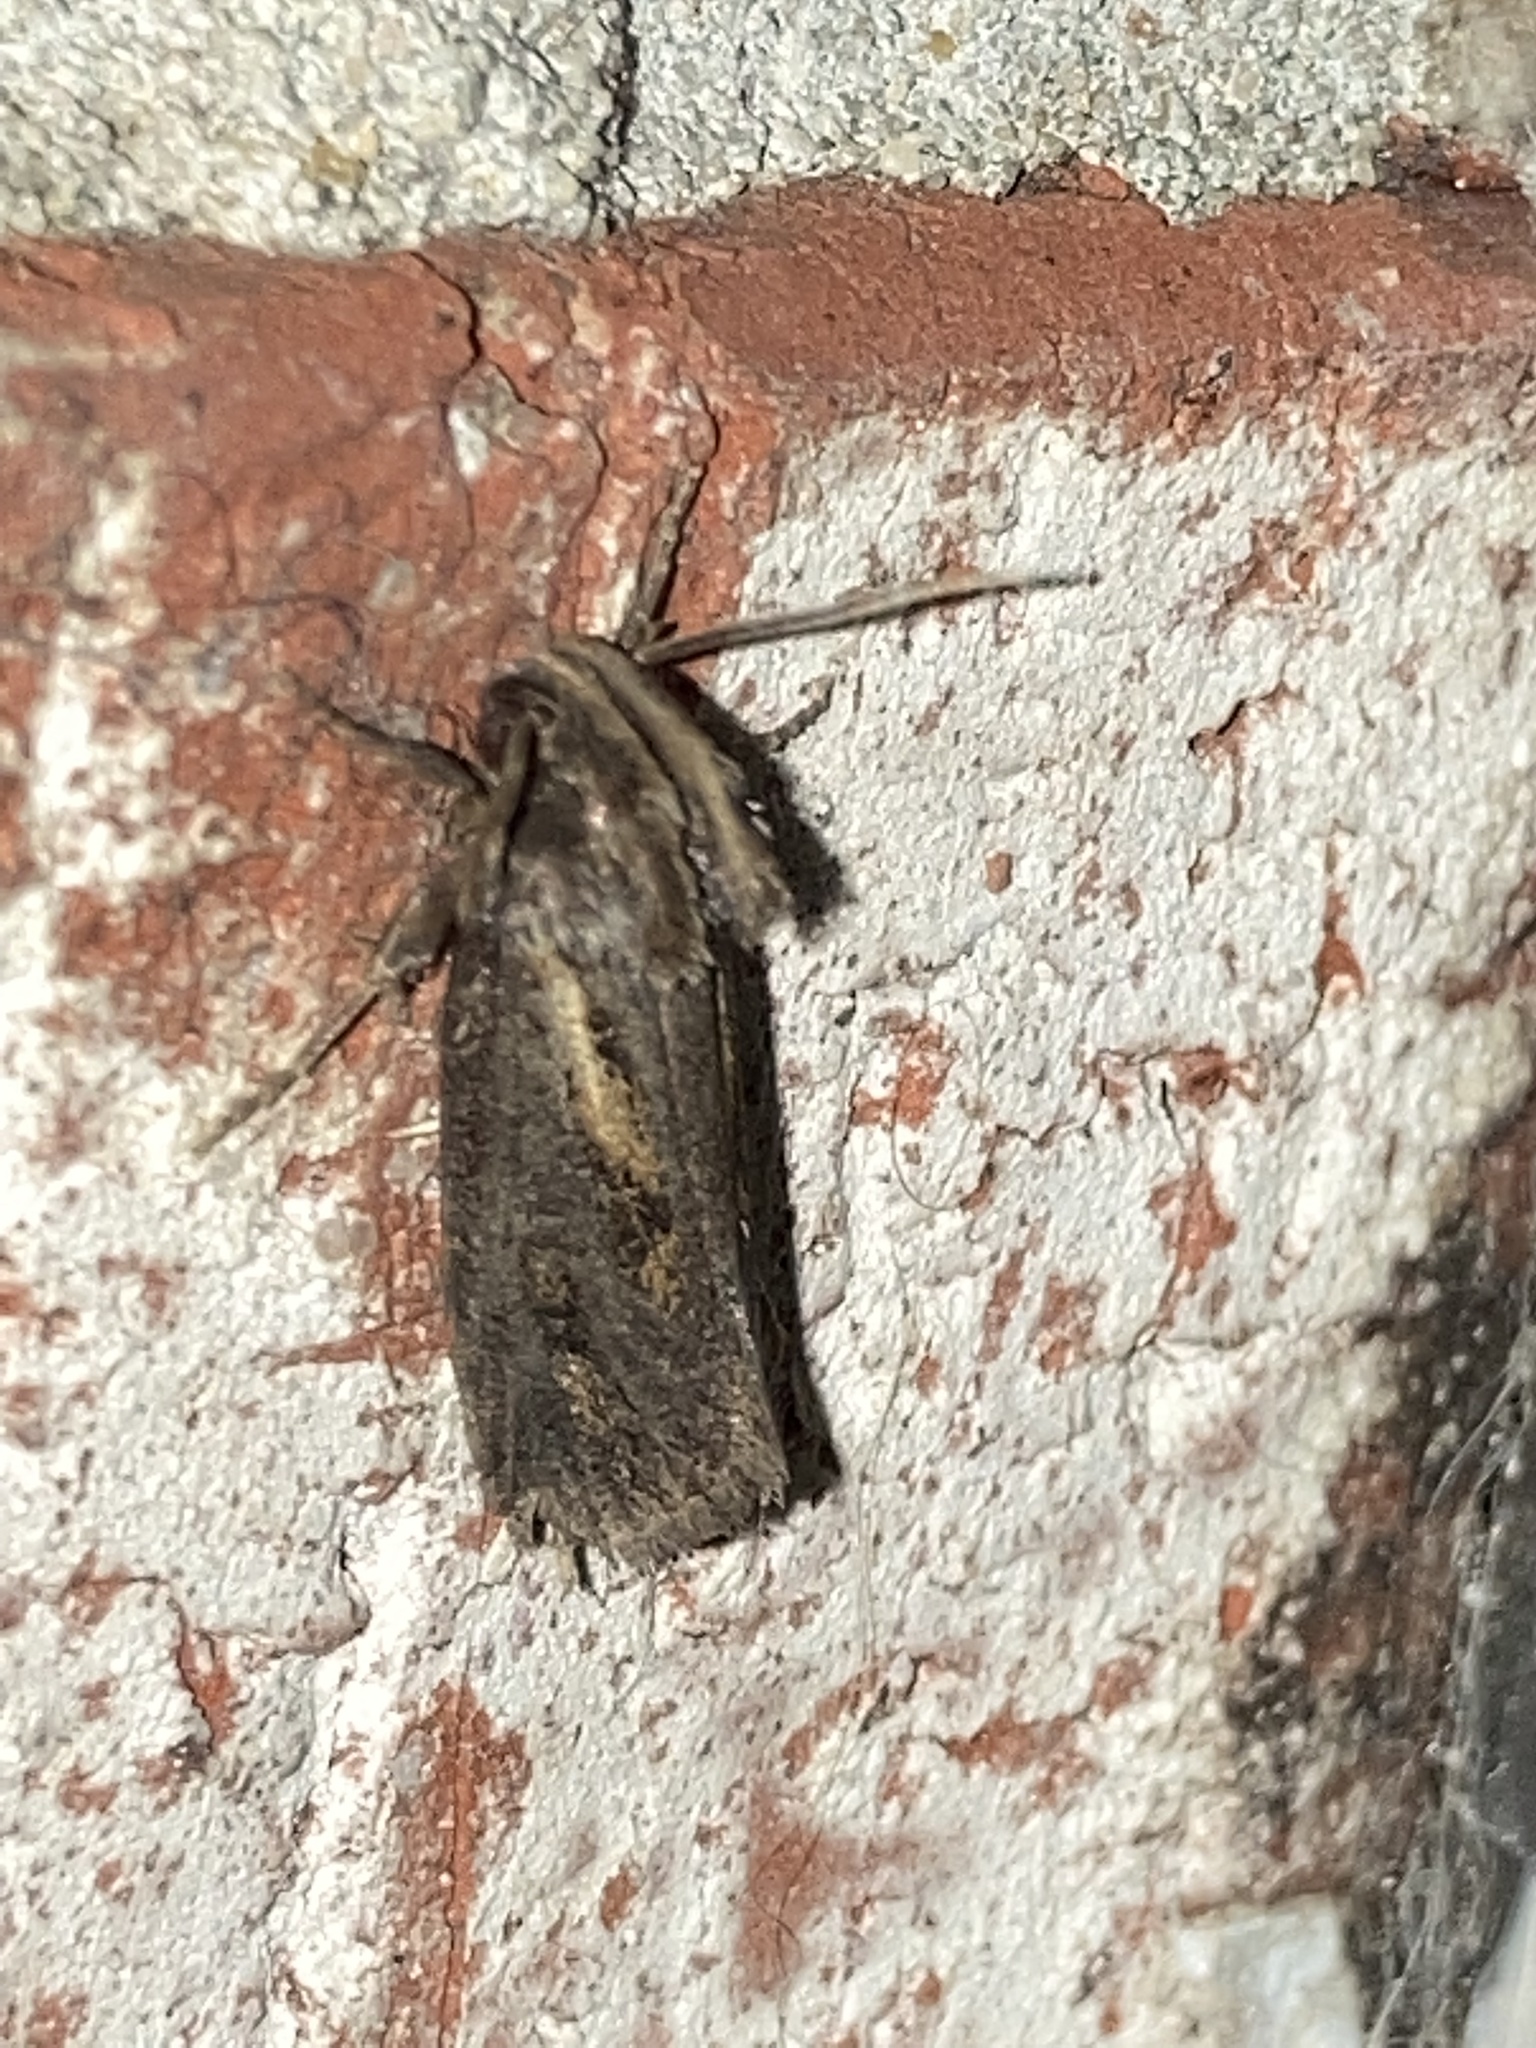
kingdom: Animalia
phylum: Arthropoda
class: Insecta
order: Lepidoptera
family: Tineidae
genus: Acrolophus
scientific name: Acrolophus popeanella
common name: Clemens' grass tubeworm moth
